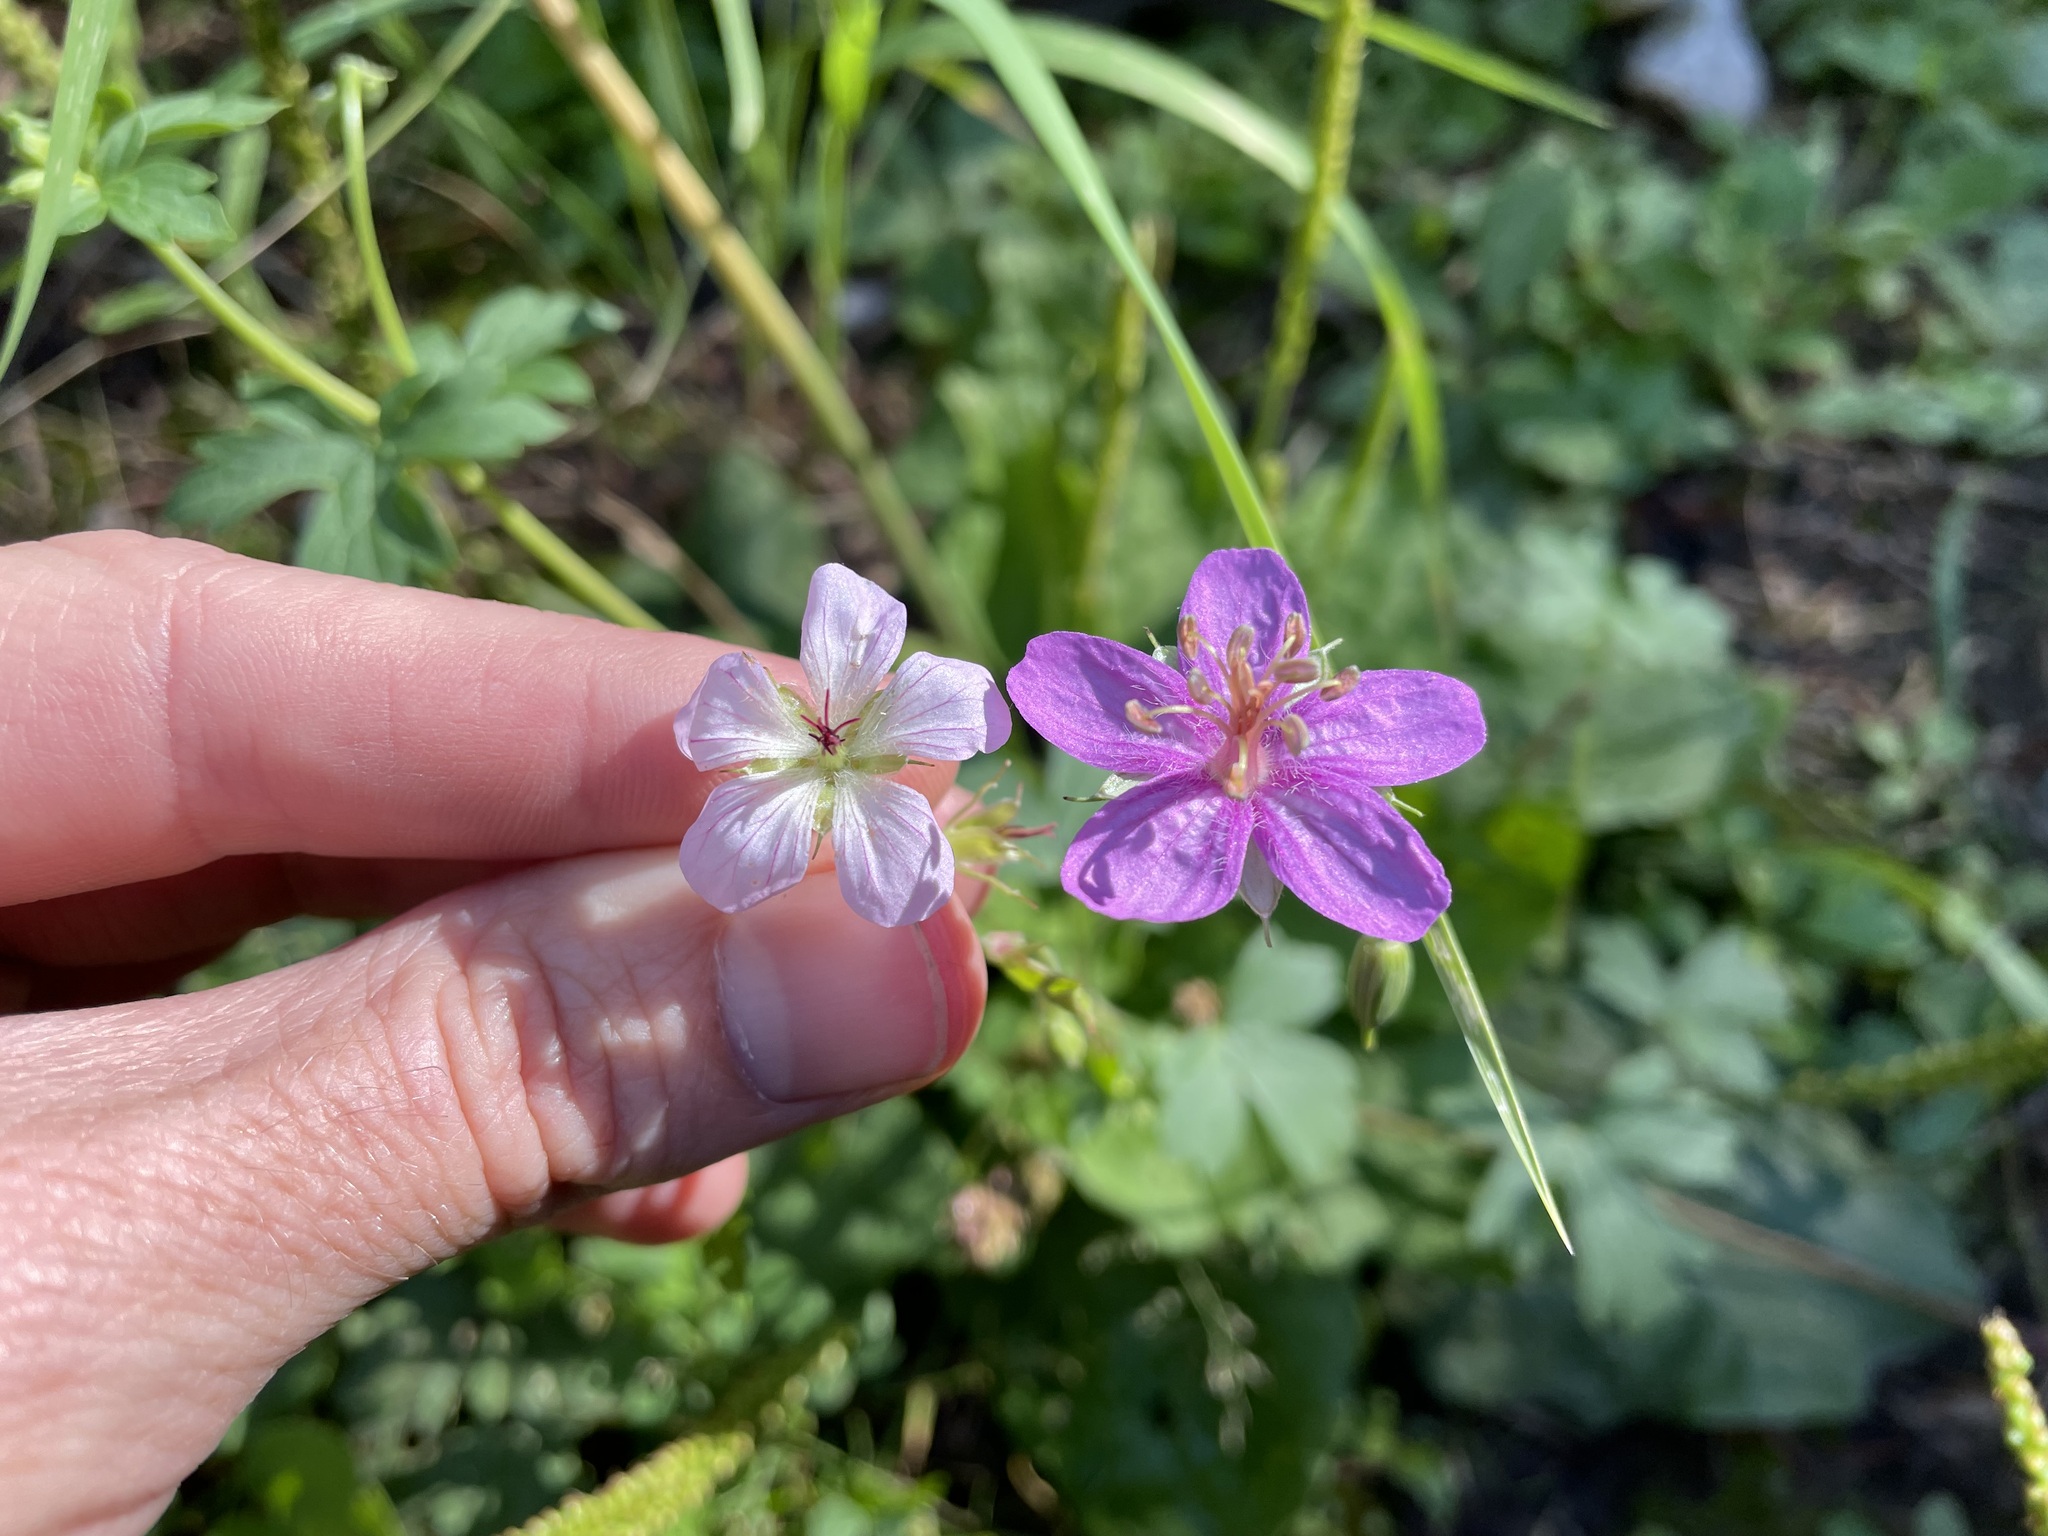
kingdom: Plantae
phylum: Tracheophyta
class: Magnoliopsida
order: Geraniales
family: Geraniaceae
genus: Geranium
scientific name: Geranium caespitosum
